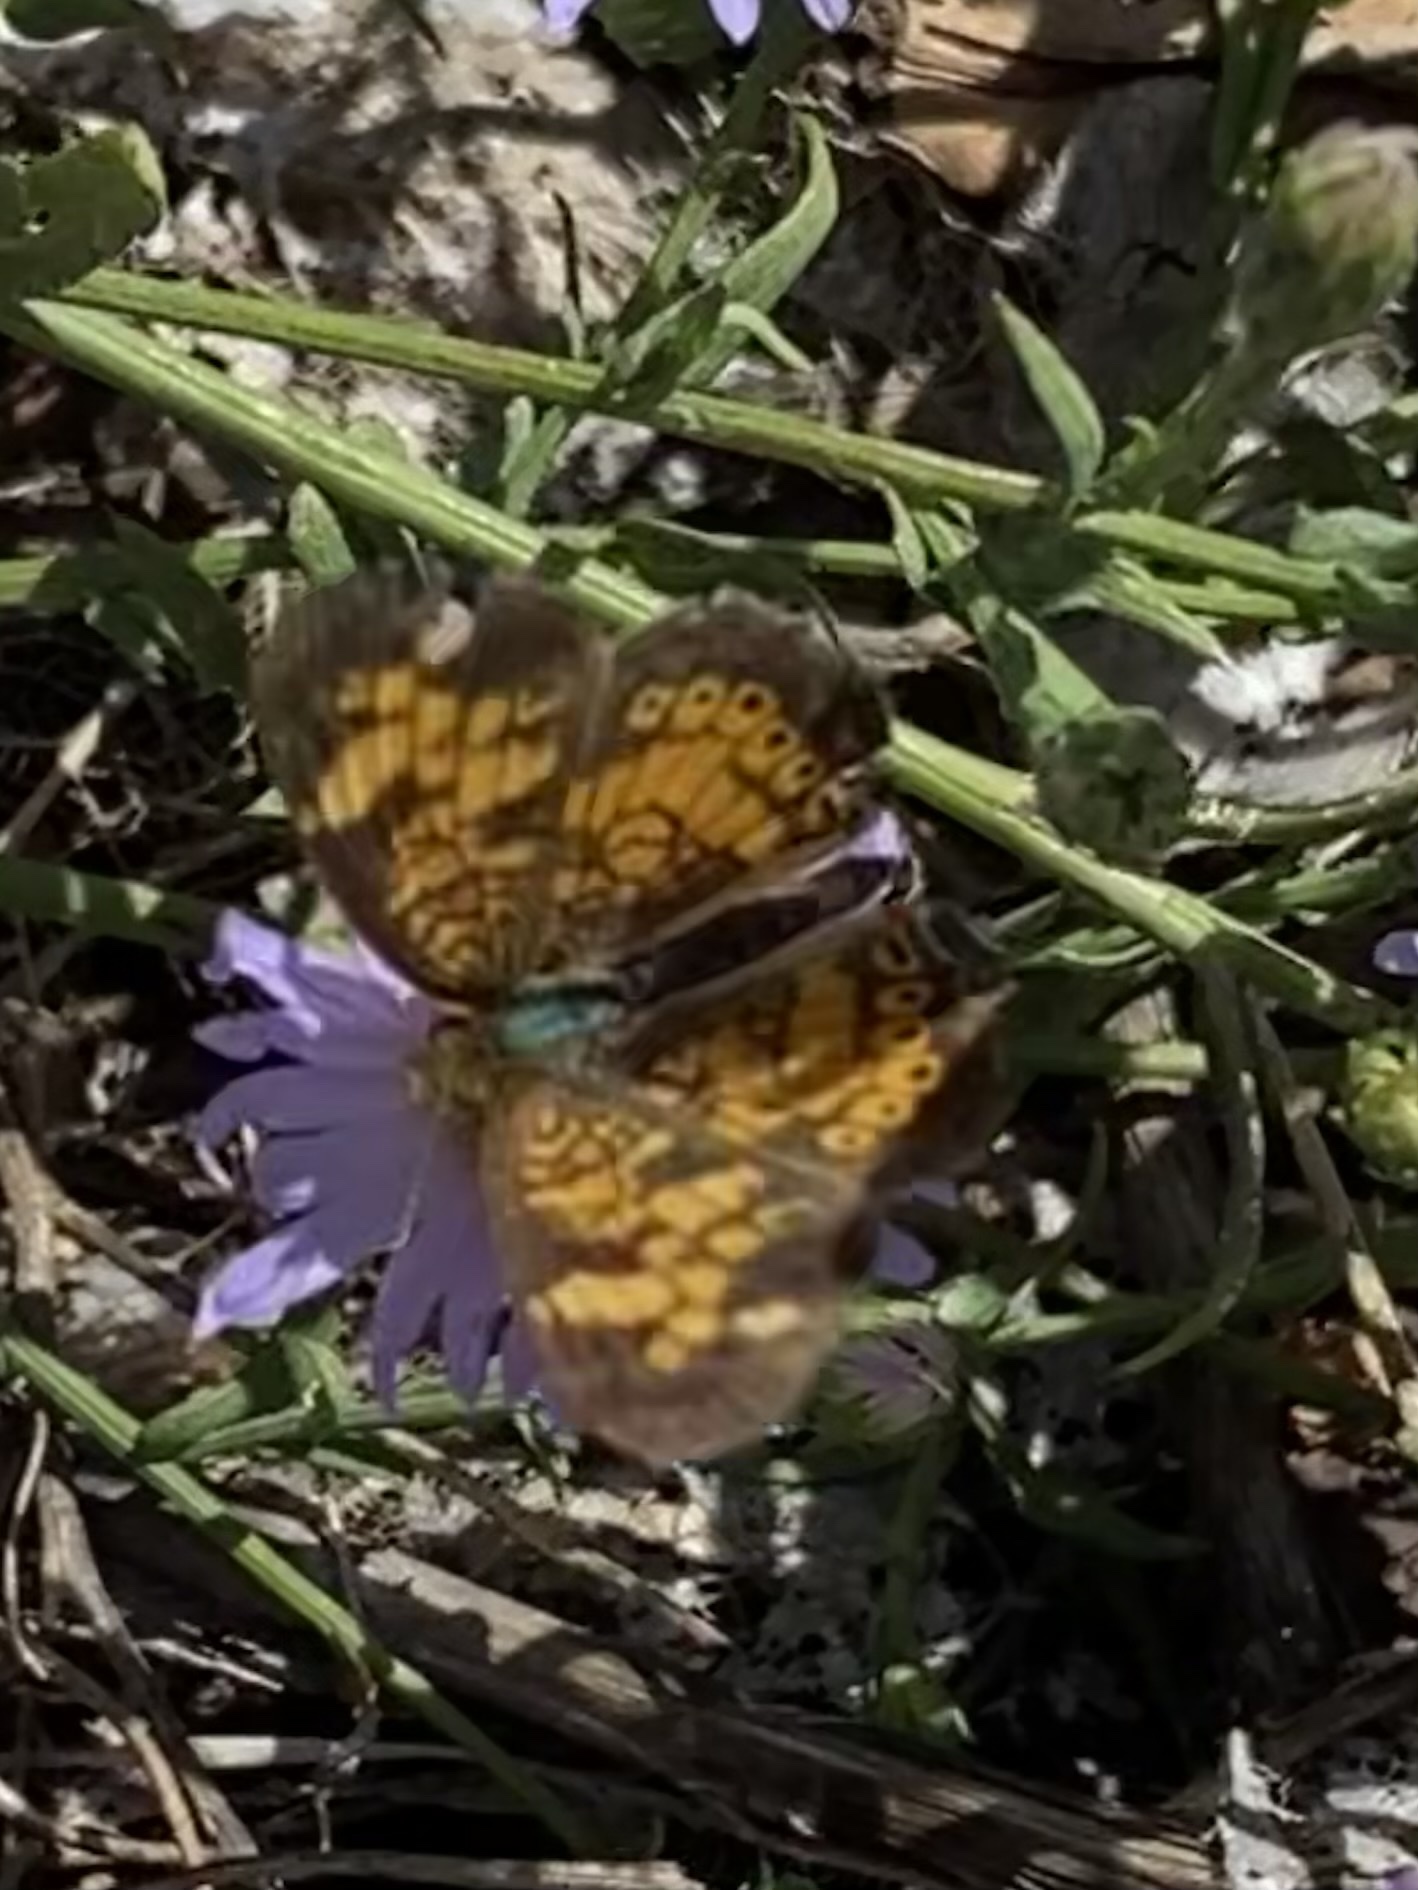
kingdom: Animalia
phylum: Arthropoda
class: Insecta
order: Lepidoptera
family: Nymphalidae
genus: Phyciodes
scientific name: Phyciodes tharos
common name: Pearl crescent
